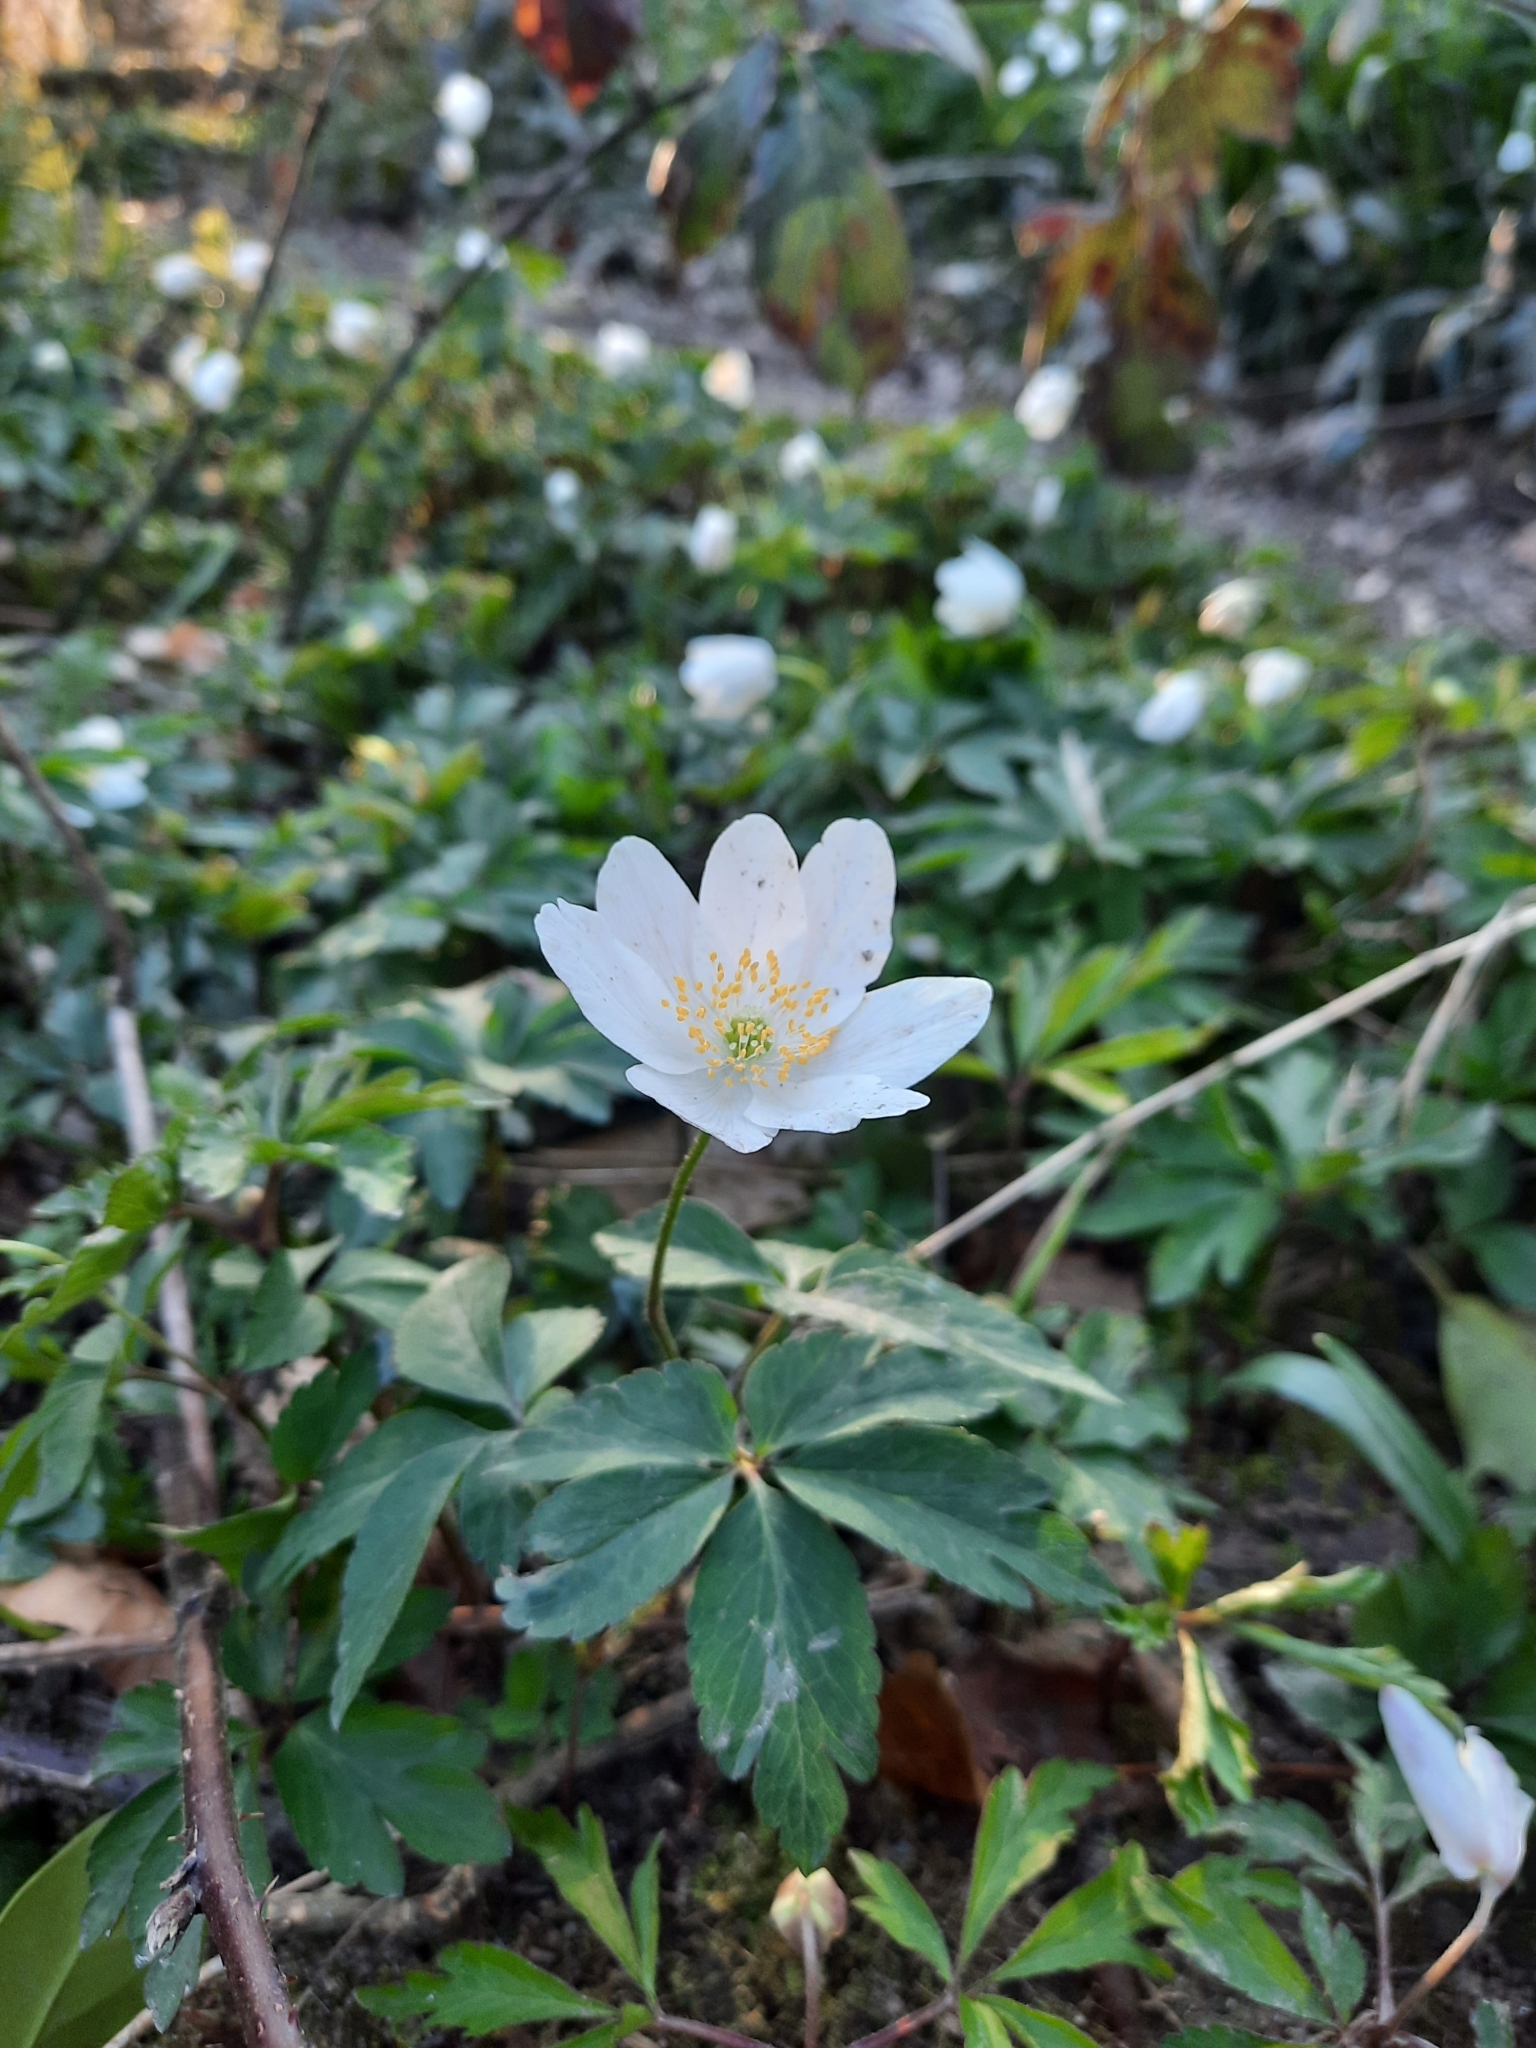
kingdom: Plantae
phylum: Tracheophyta
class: Magnoliopsida
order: Ranunculales
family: Ranunculaceae
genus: Anemone
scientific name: Anemone nemorosa
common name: Wood anemone
